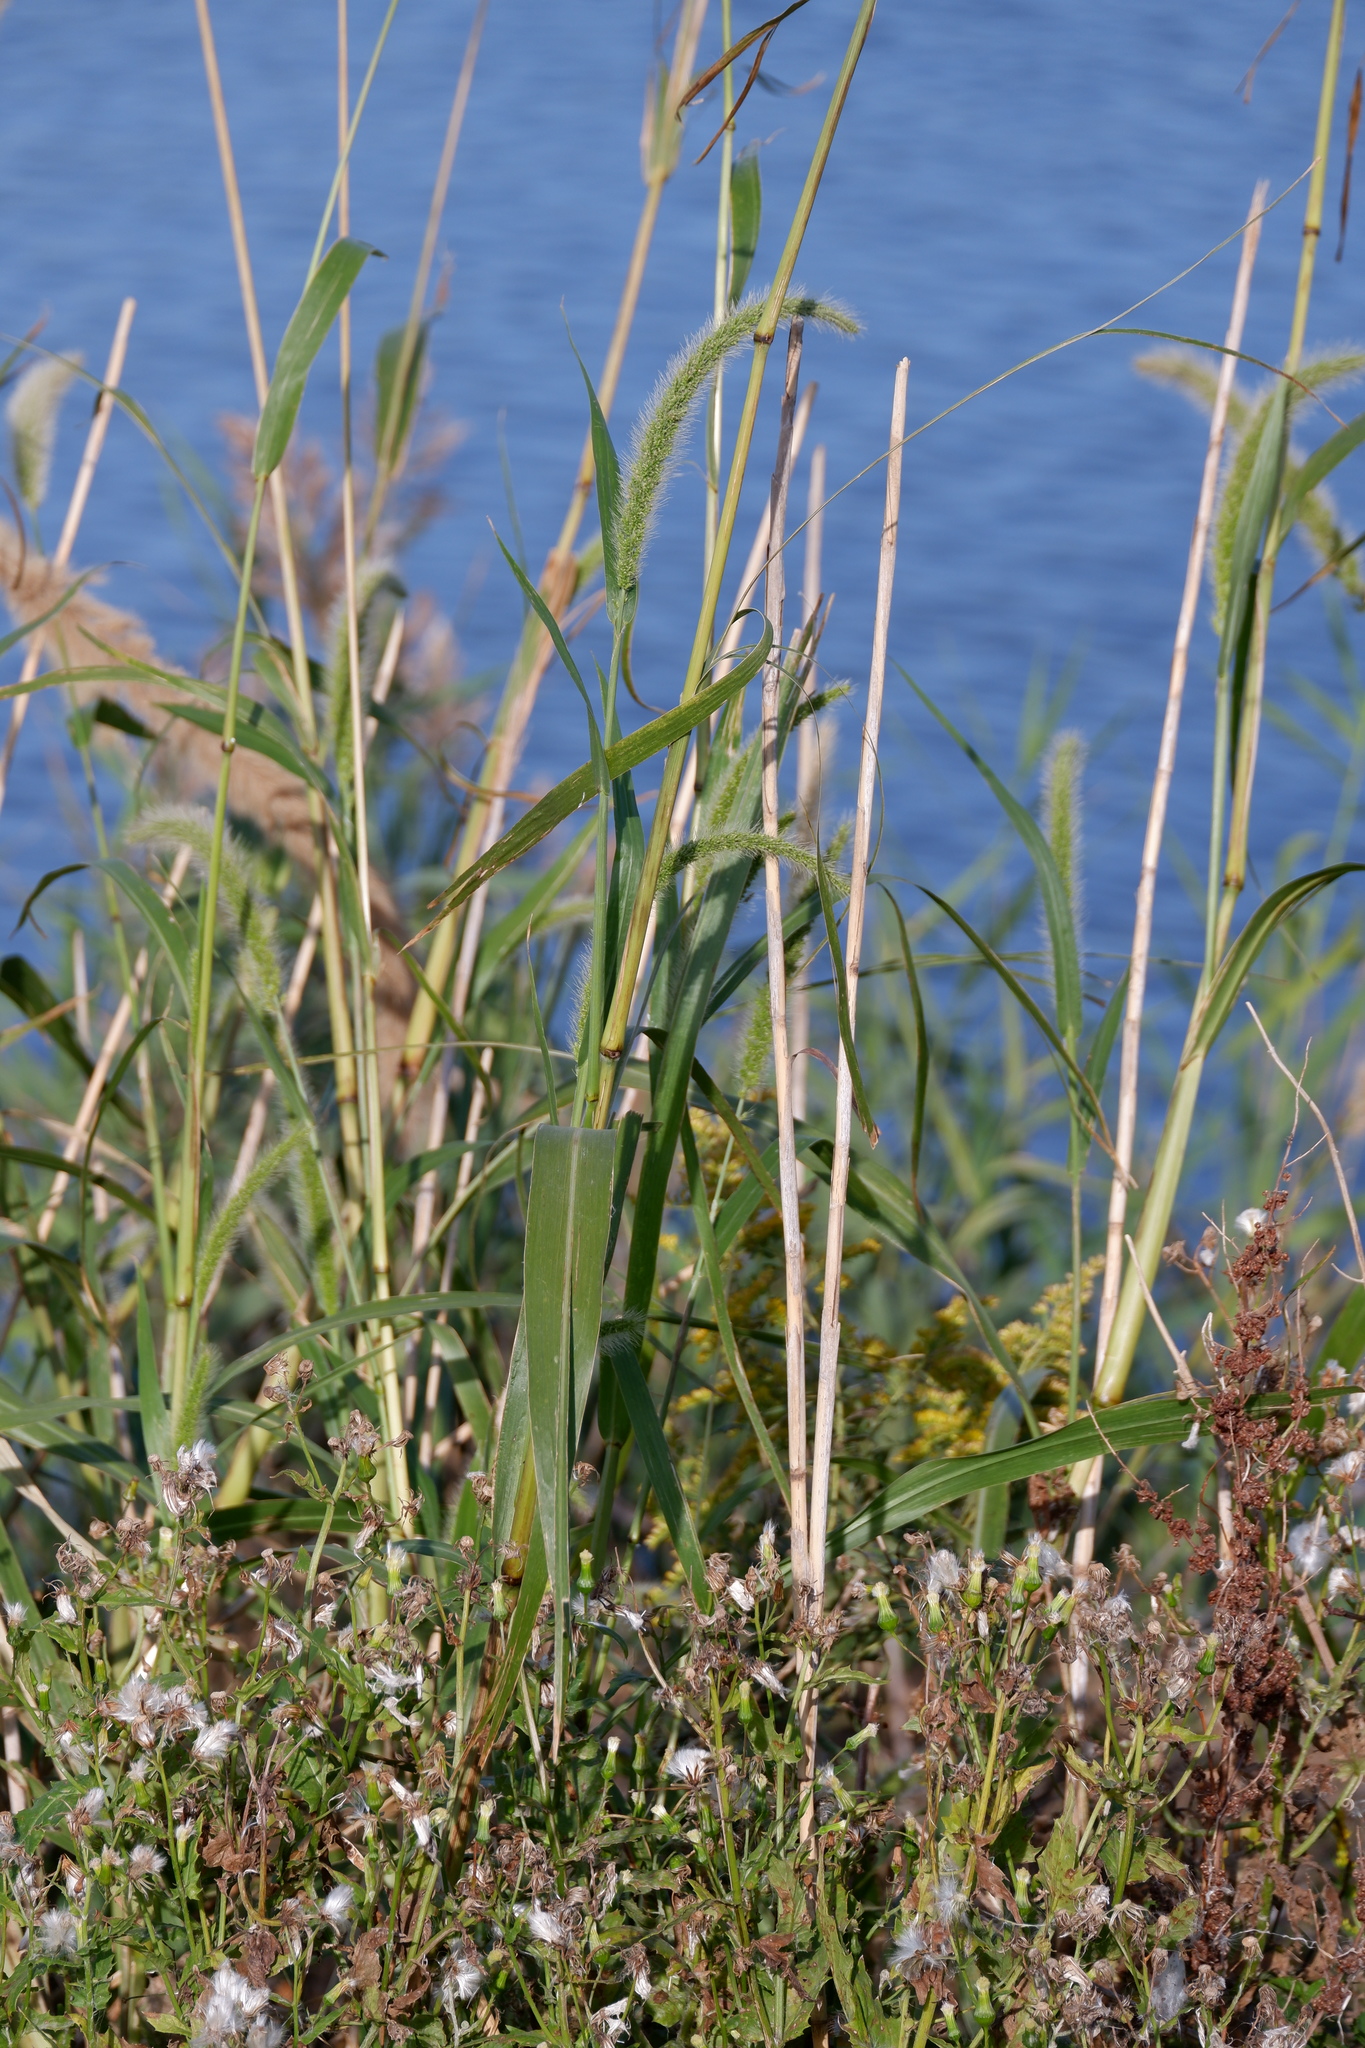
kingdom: Plantae
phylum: Tracheophyta
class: Liliopsida
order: Poales
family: Poaceae
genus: Setaria
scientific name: Setaria magna
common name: Giant bristle grass
